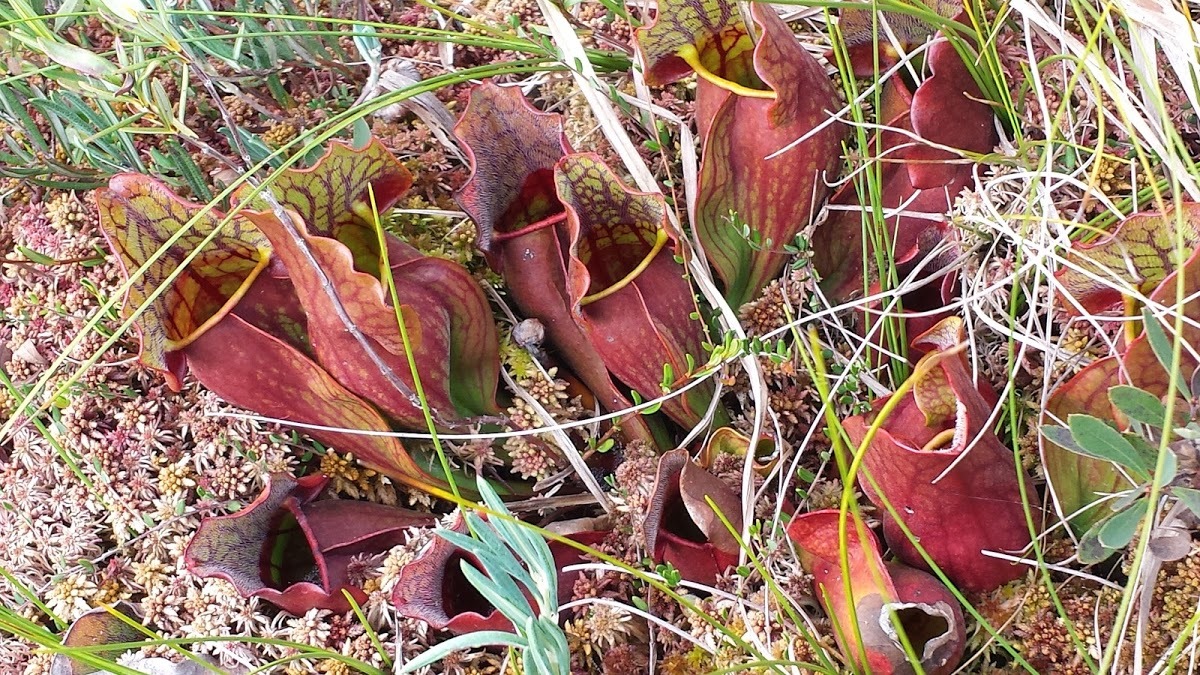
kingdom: Plantae
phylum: Tracheophyta
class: Magnoliopsida
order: Ericales
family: Sarraceniaceae
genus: Sarracenia
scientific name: Sarracenia purpurea
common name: Pitcherplant
